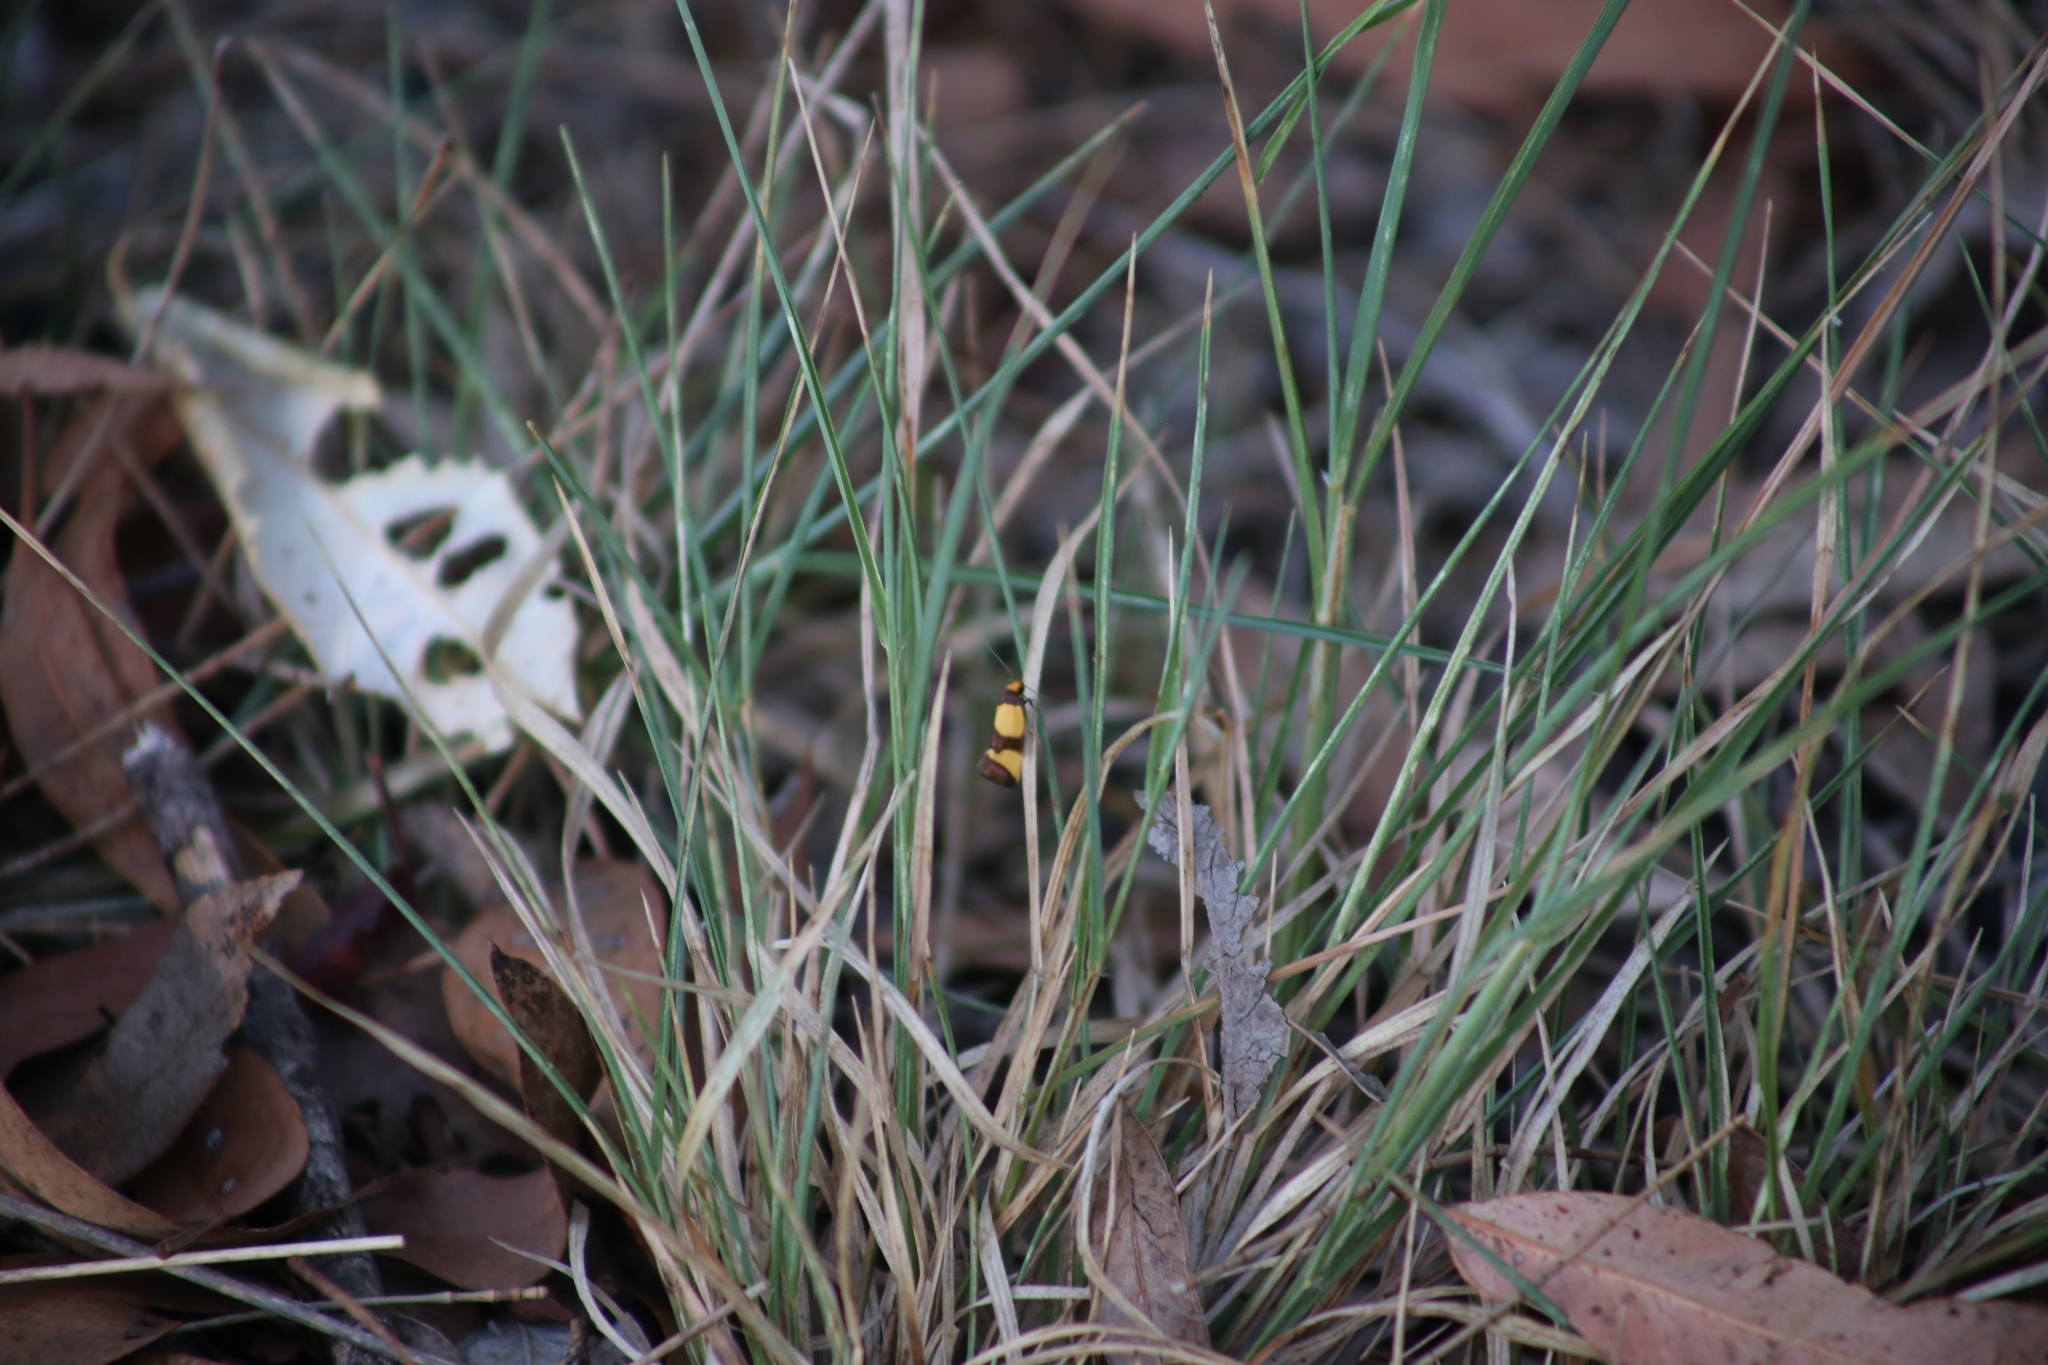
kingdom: Animalia
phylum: Arthropoda
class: Insecta
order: Lepidoptera
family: Oecophoridae
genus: Chrysonoma
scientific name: Chrysonoma fascialis
